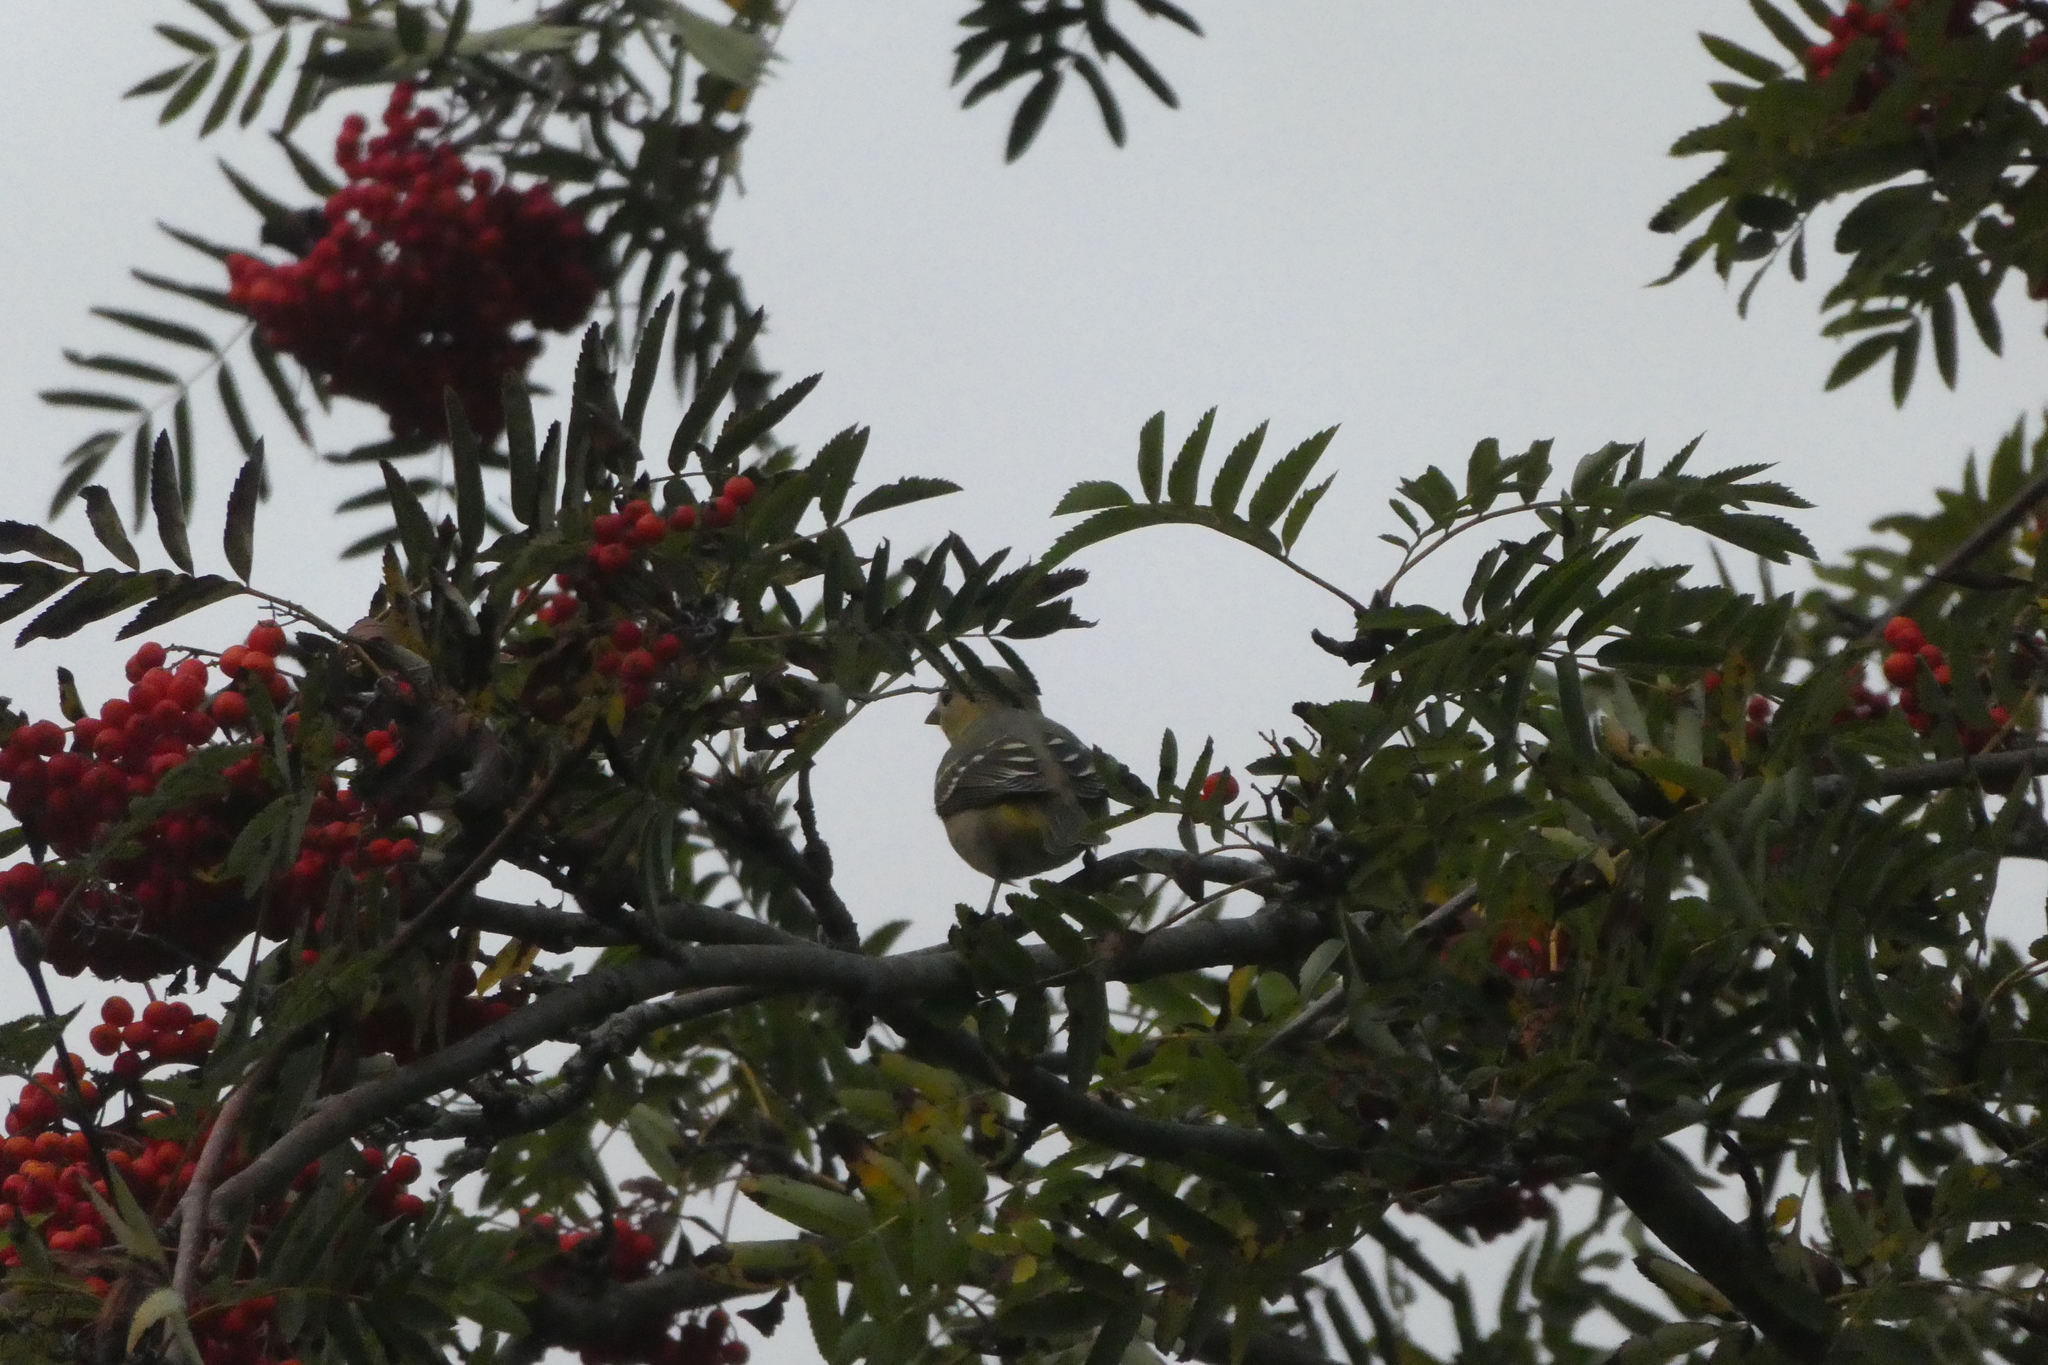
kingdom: Animalia
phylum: Chordata
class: Aves
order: Passeriformes
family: Cardinalidae
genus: Piranga
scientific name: Piranga ludoviciana
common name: Western tanager
